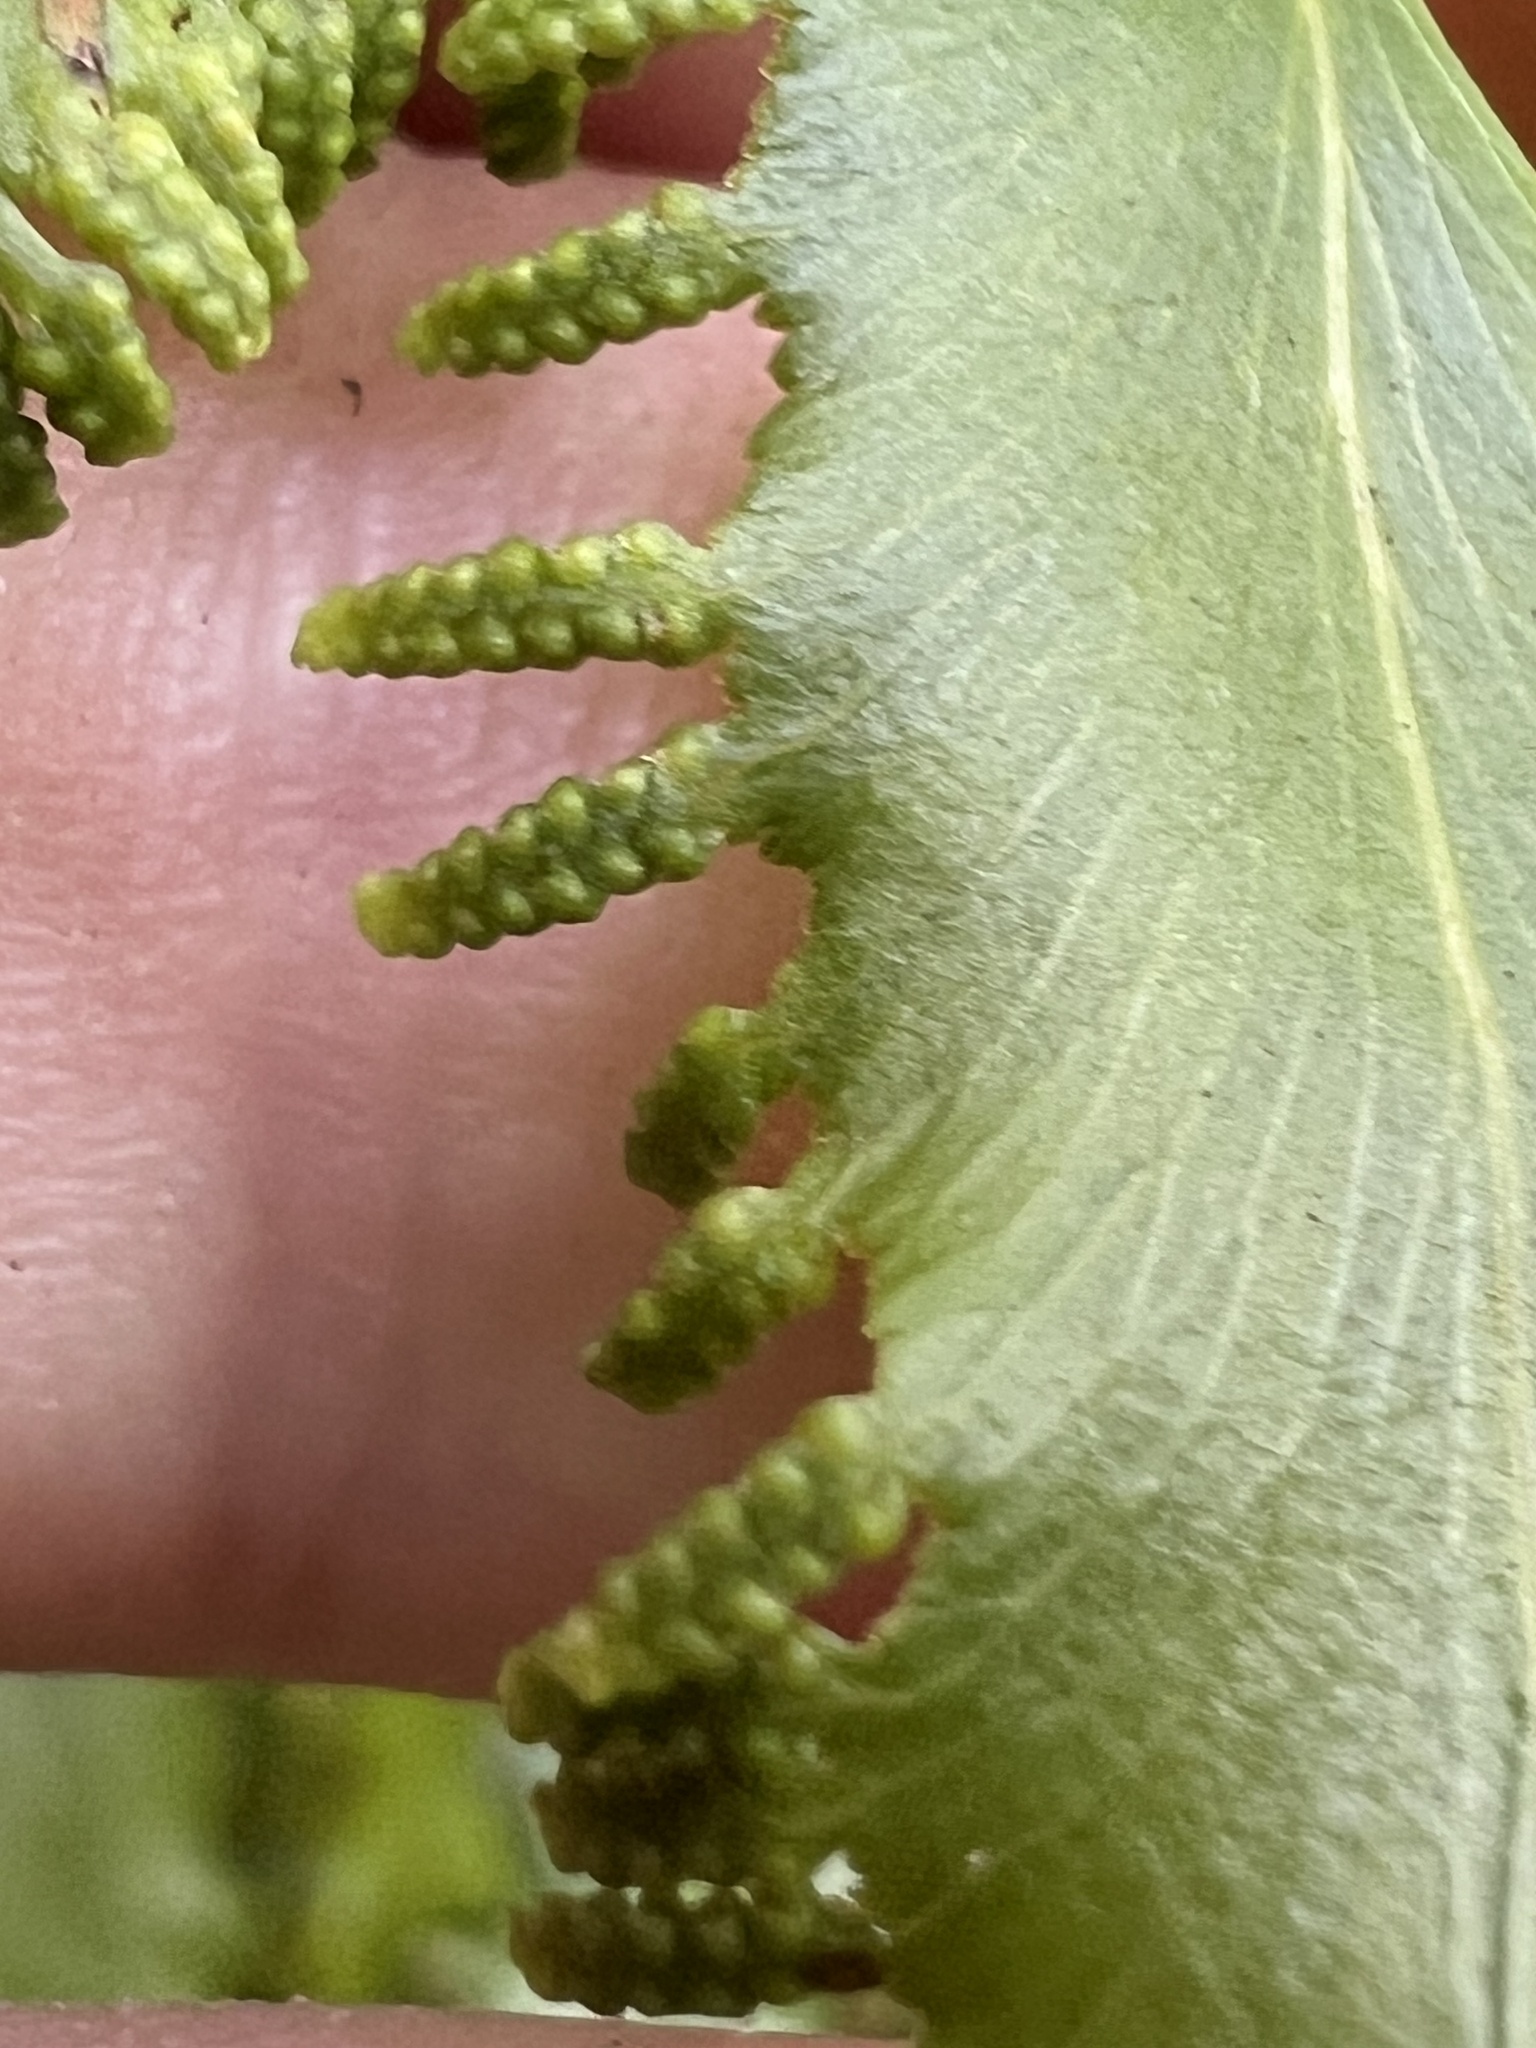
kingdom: Plantae
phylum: Tracheophyta
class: Polypodiopsida
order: Schizaeales
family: Lygodiaceae
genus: Lygodium
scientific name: Lygodium reticulatum
